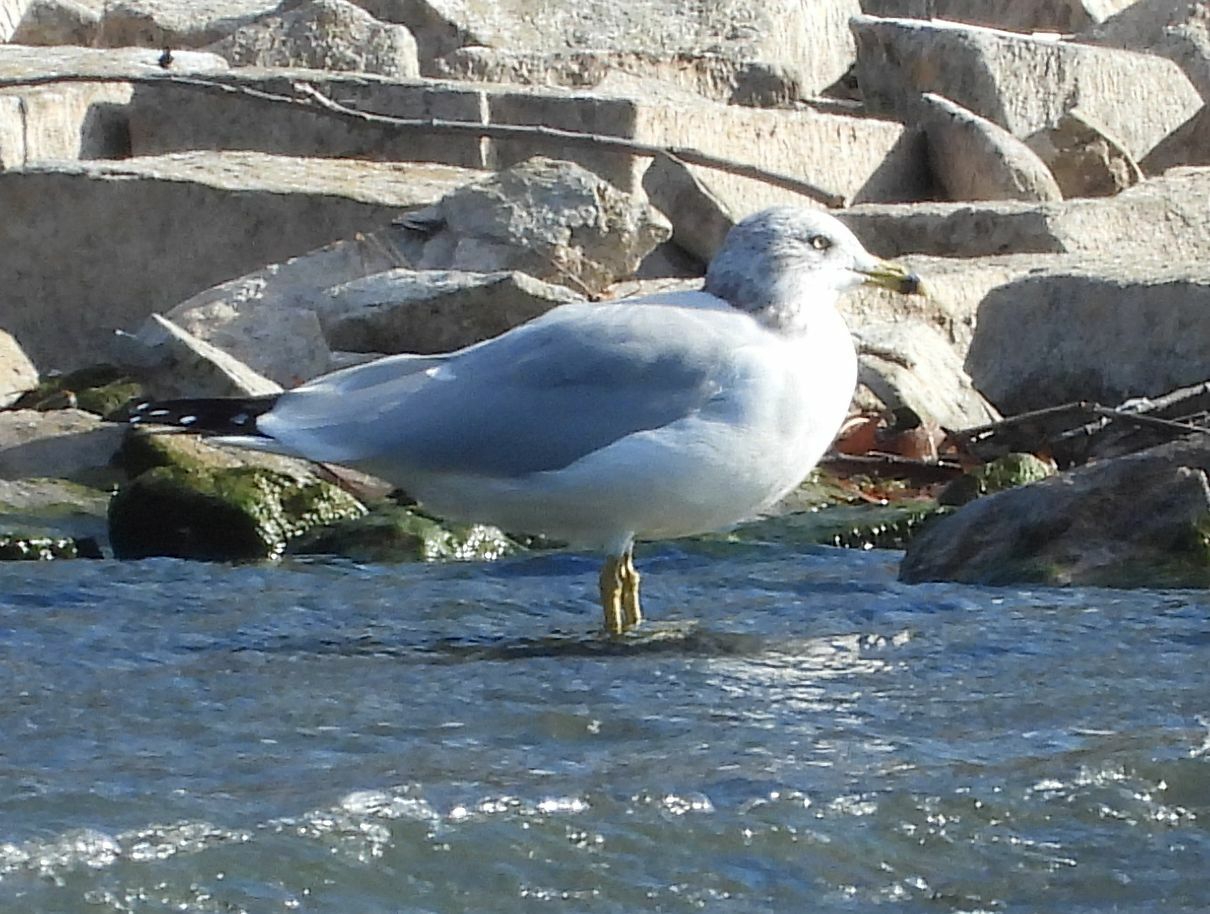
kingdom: Animalia
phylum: Chordata
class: Aves
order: Charadriiformes
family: Laridae
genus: Larus
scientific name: Larus delawarensis
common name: Ring-billed gull
